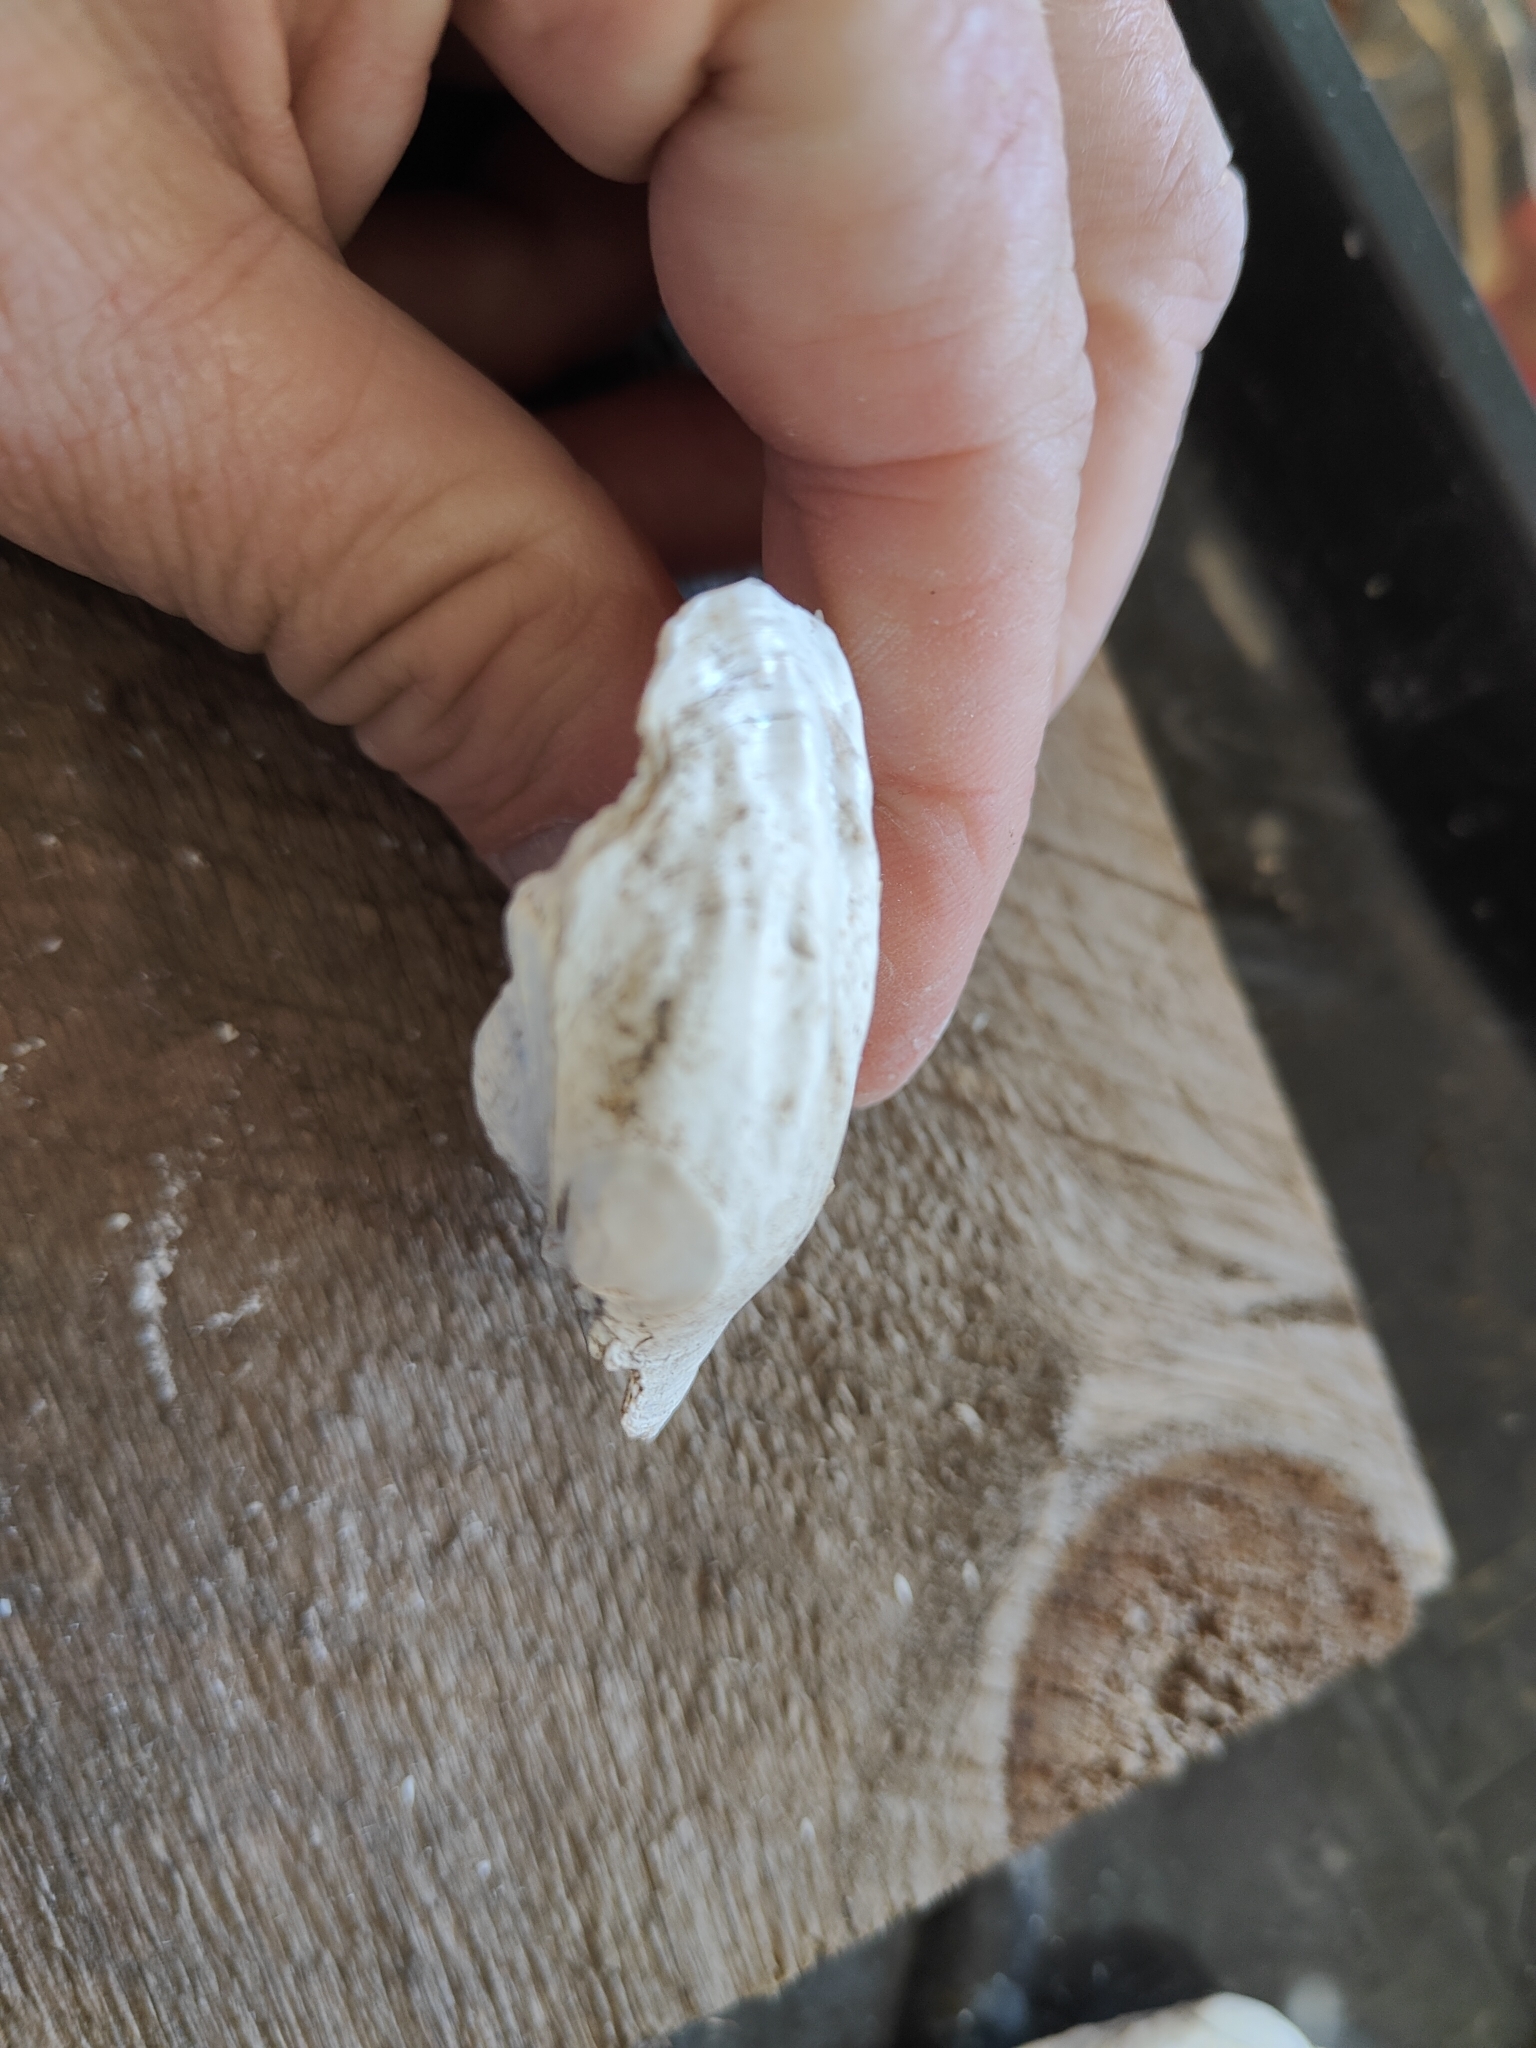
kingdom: Animalia
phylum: Mollusca
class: Bivalvia
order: Unionida
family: Unionidae
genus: Amblema
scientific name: Amblema plicata
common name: Threeridge
